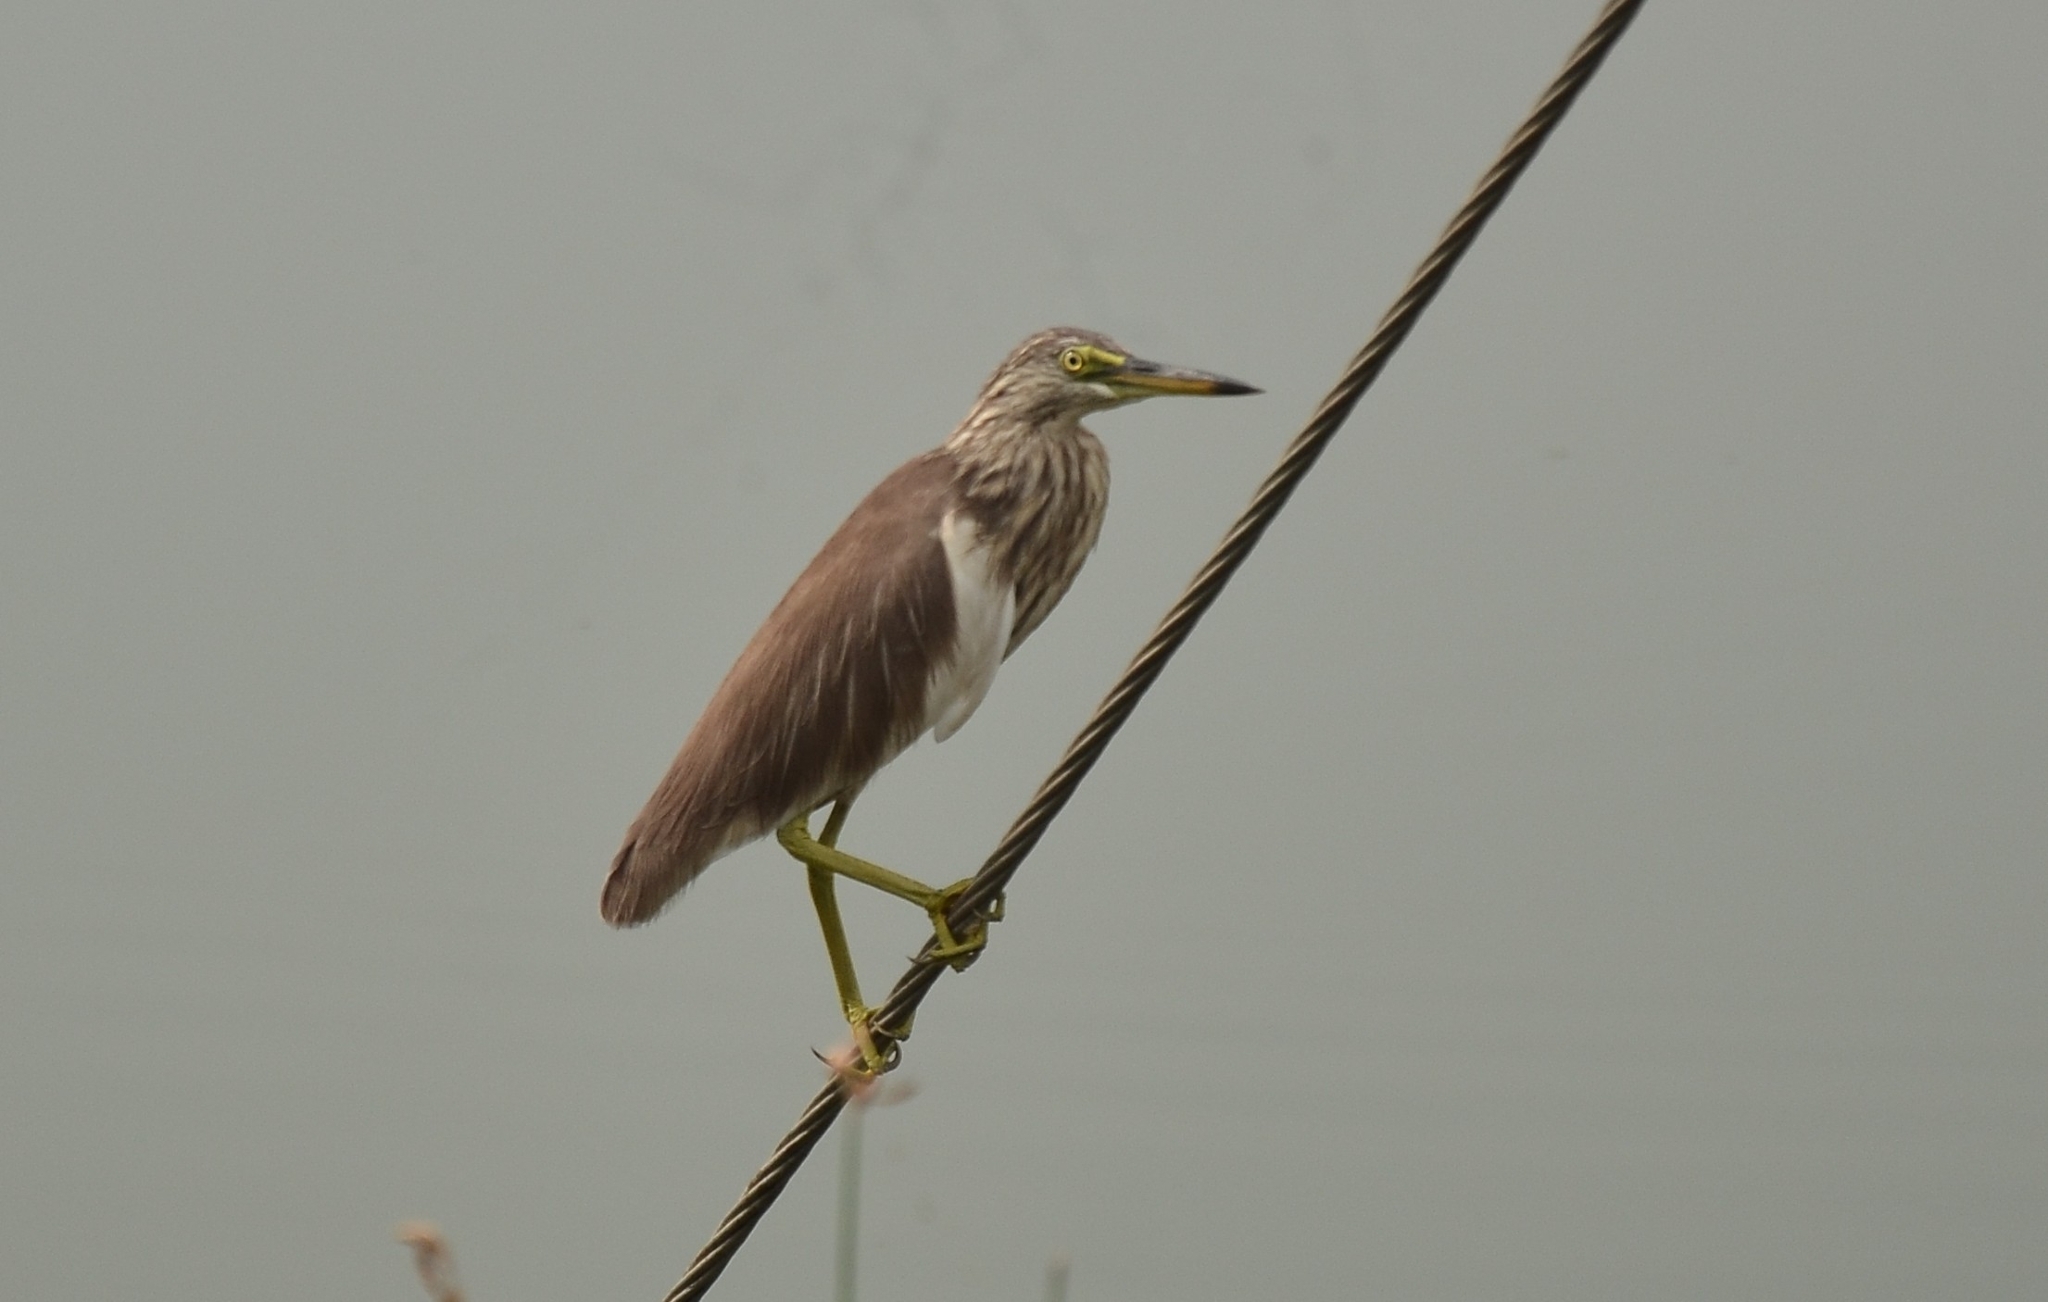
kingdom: Animalia
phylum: Chordata
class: Aves
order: Pelecaniformes
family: Ardeidae
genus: Ardeola
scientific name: Ardeola grayii
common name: Indian pond heron
